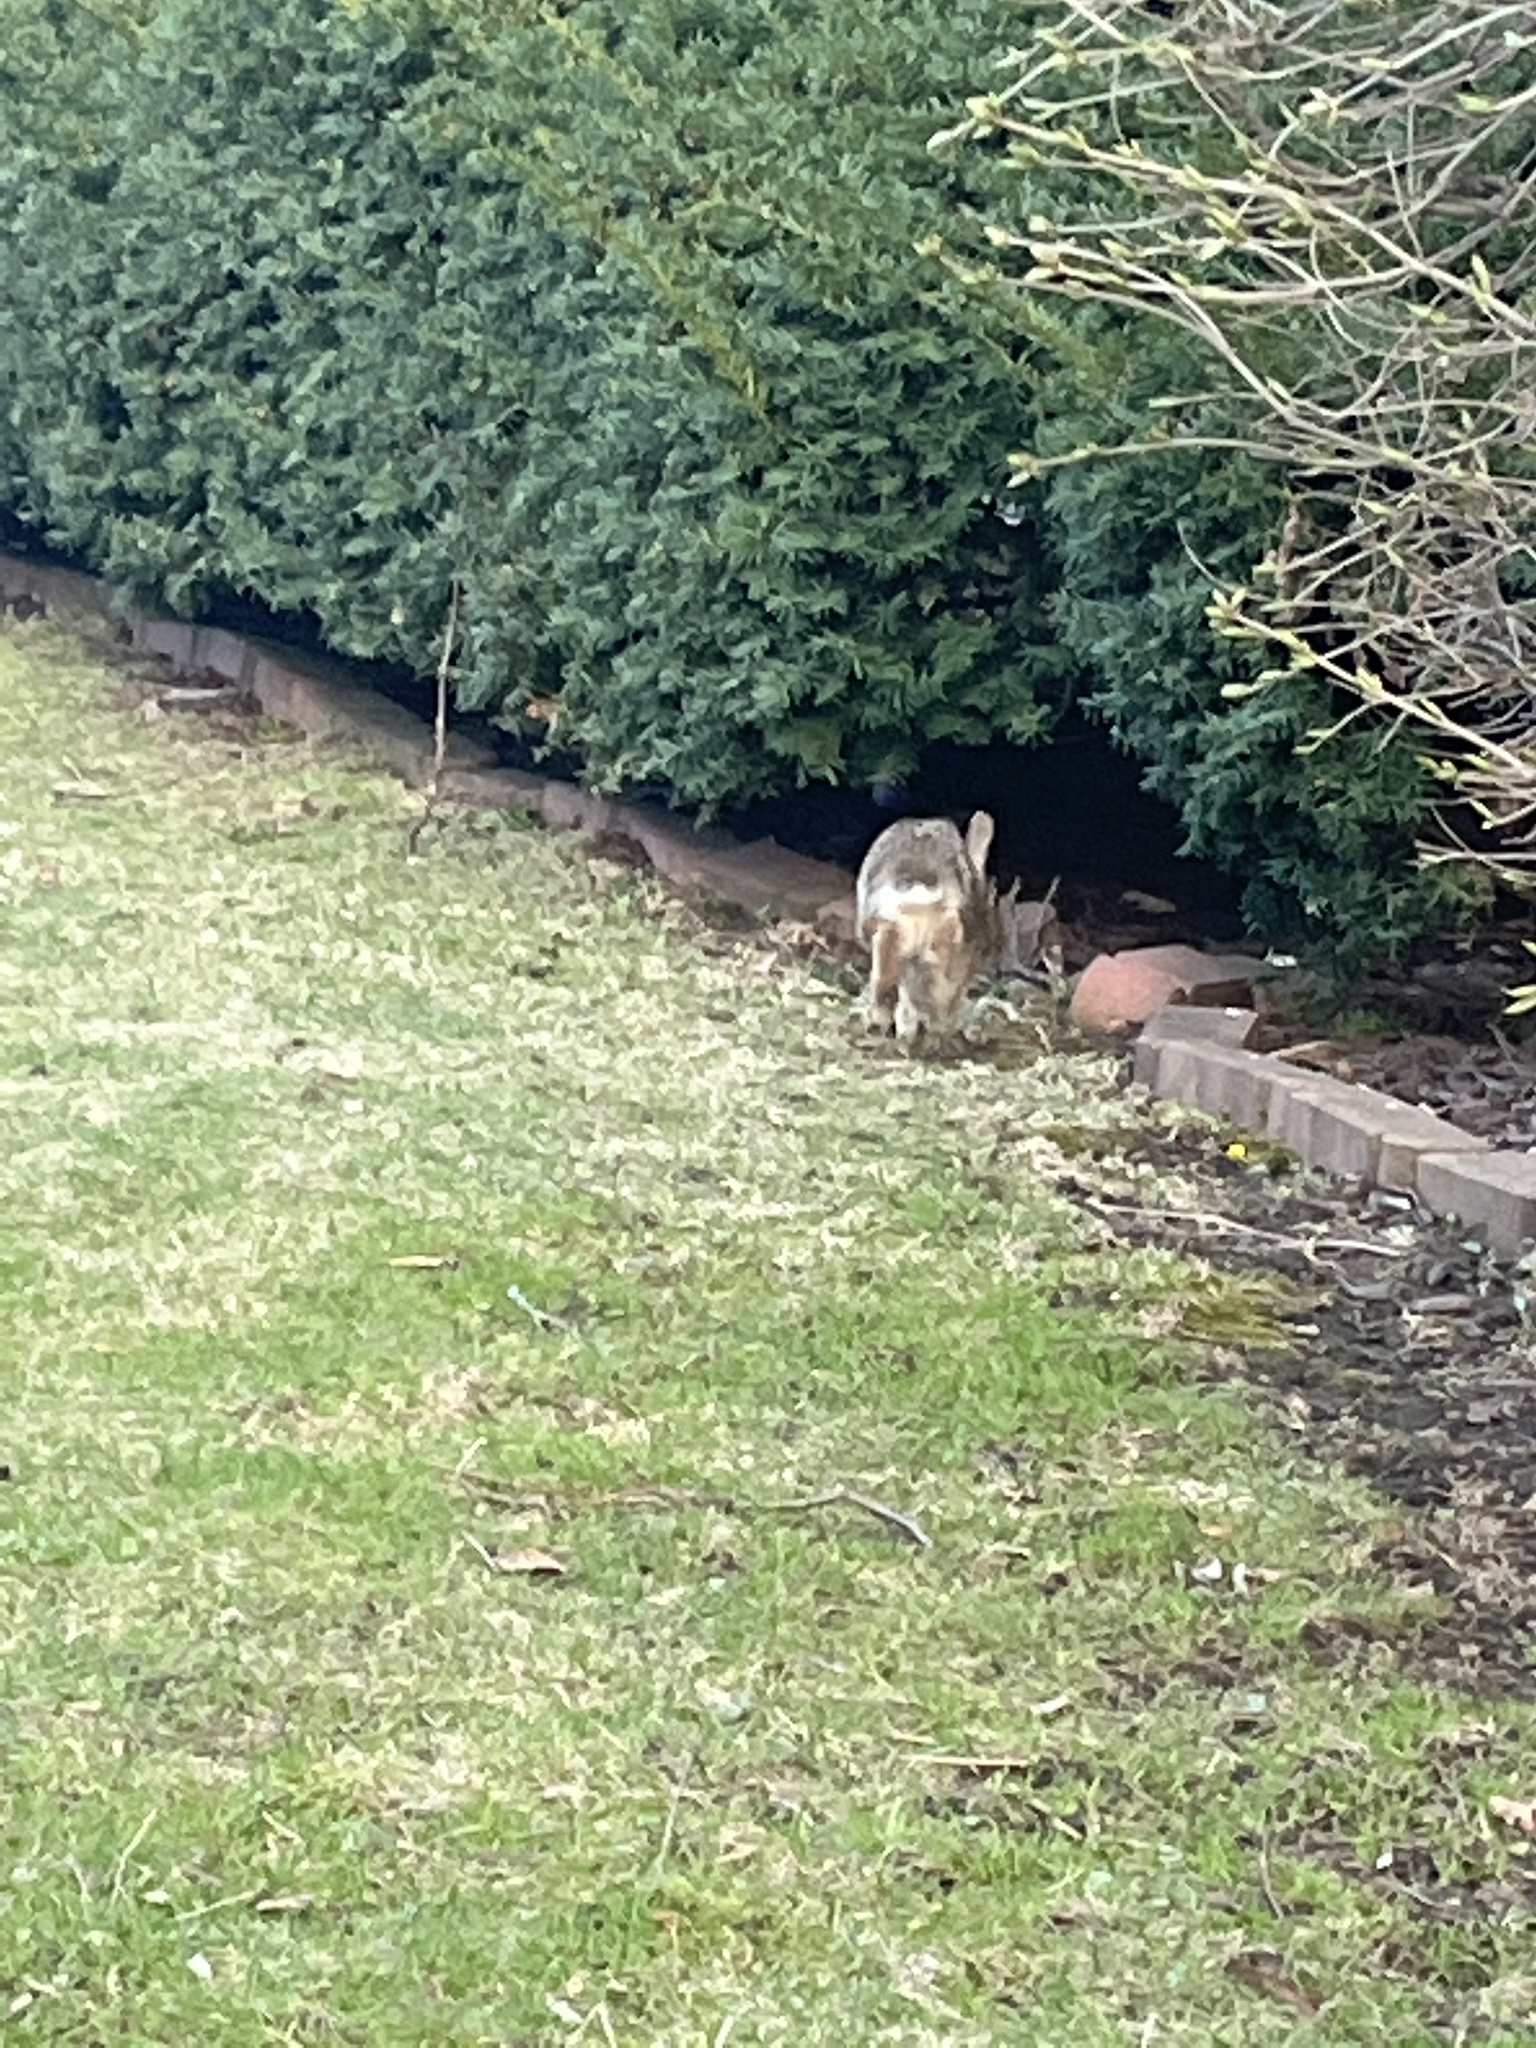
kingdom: Animalia
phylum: Chordata
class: Mammalia
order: Lagomorpha
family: Leporidae
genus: Sylvilagus
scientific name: Sylvilagus floridanus
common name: Eastern cottontail
